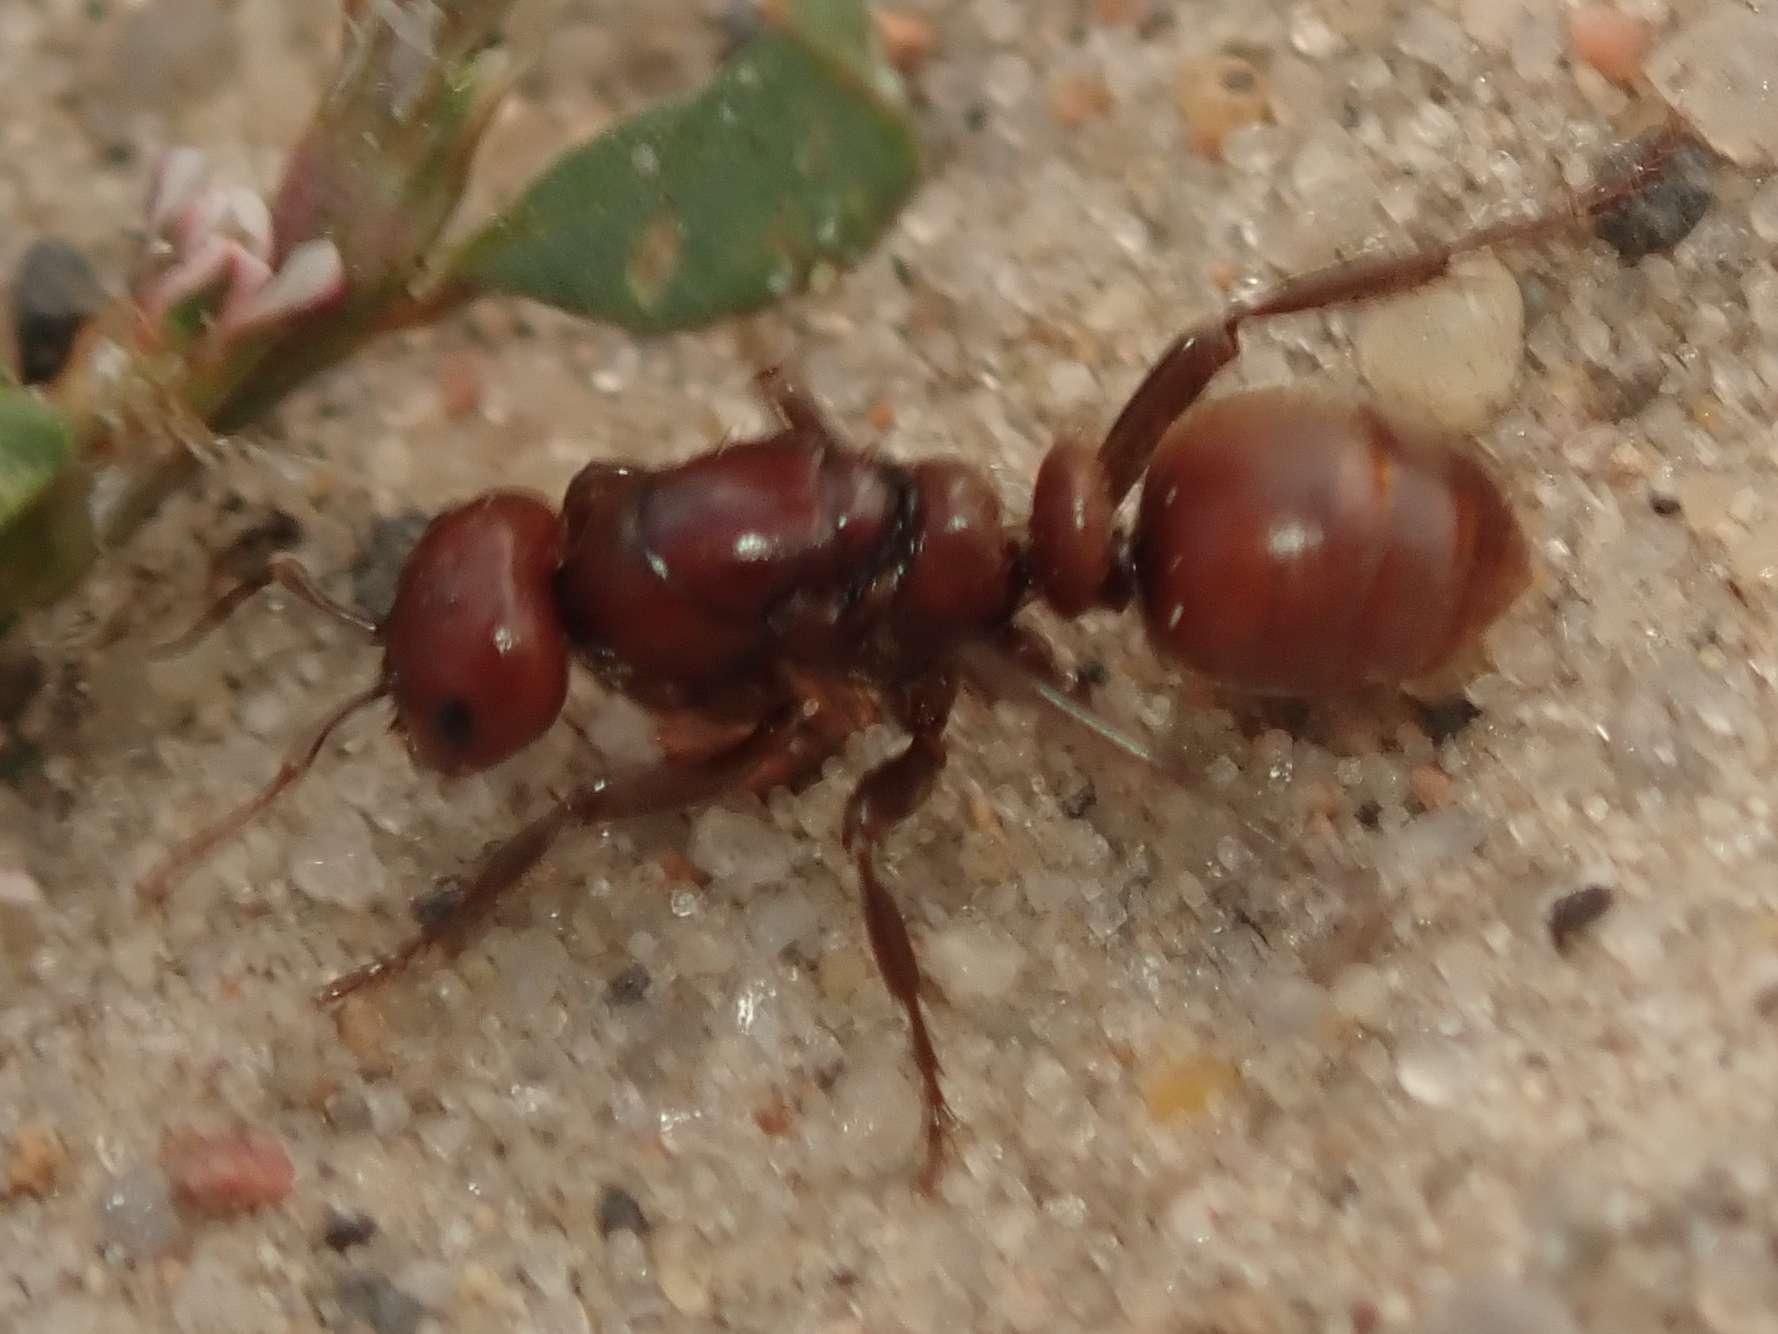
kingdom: Animalia
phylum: Arthropoda
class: Insecta
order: Hymenoptera
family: Formicidae
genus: Polyergus
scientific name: Polyergus rufescens
